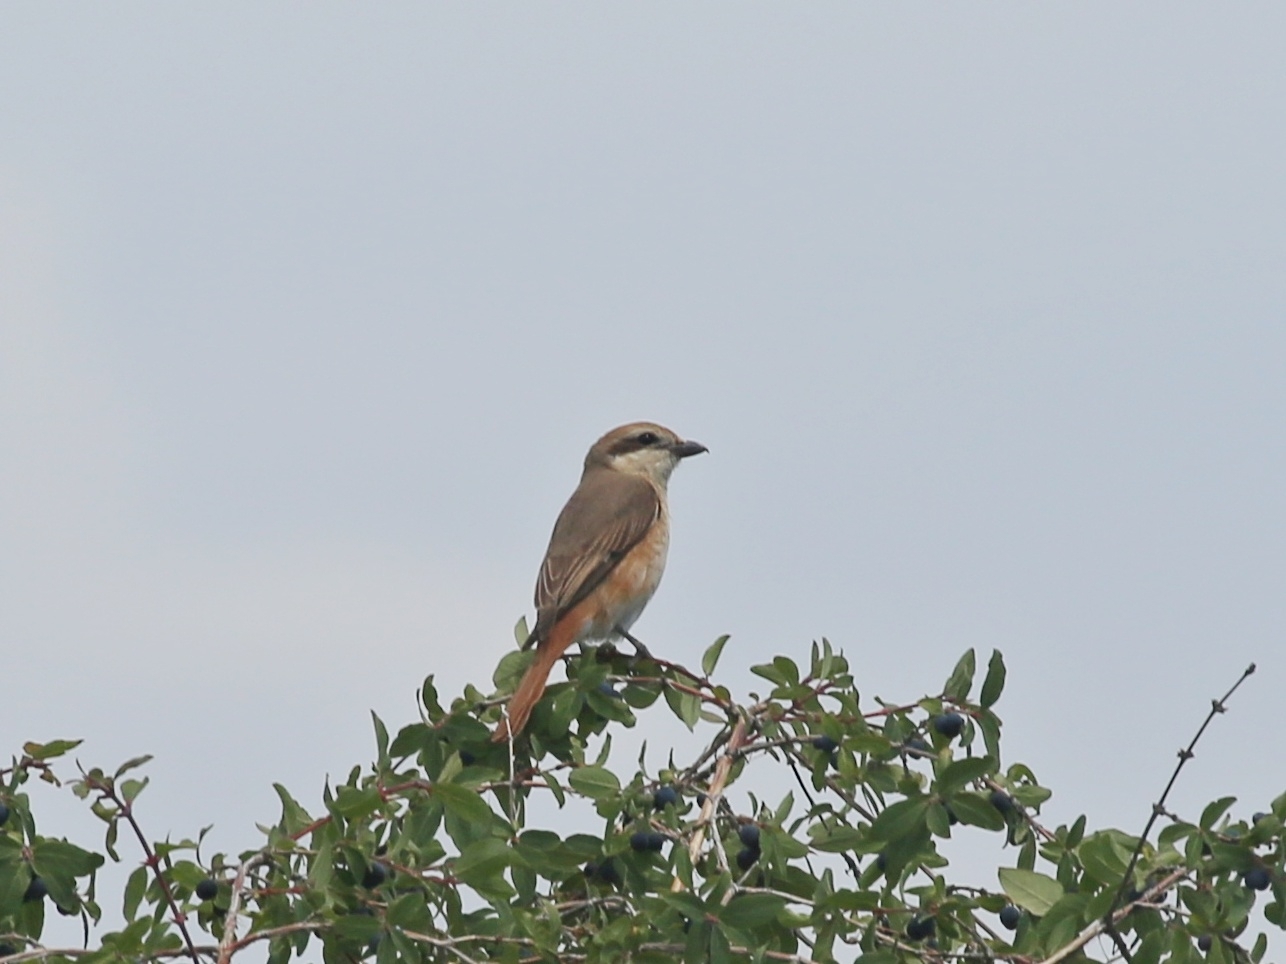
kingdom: Animalia
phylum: Chordata
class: Aves
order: Passeriformes
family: Laniidae
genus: Lanius
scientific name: Lanius phoenicuroides
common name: Red-tailed shrike
